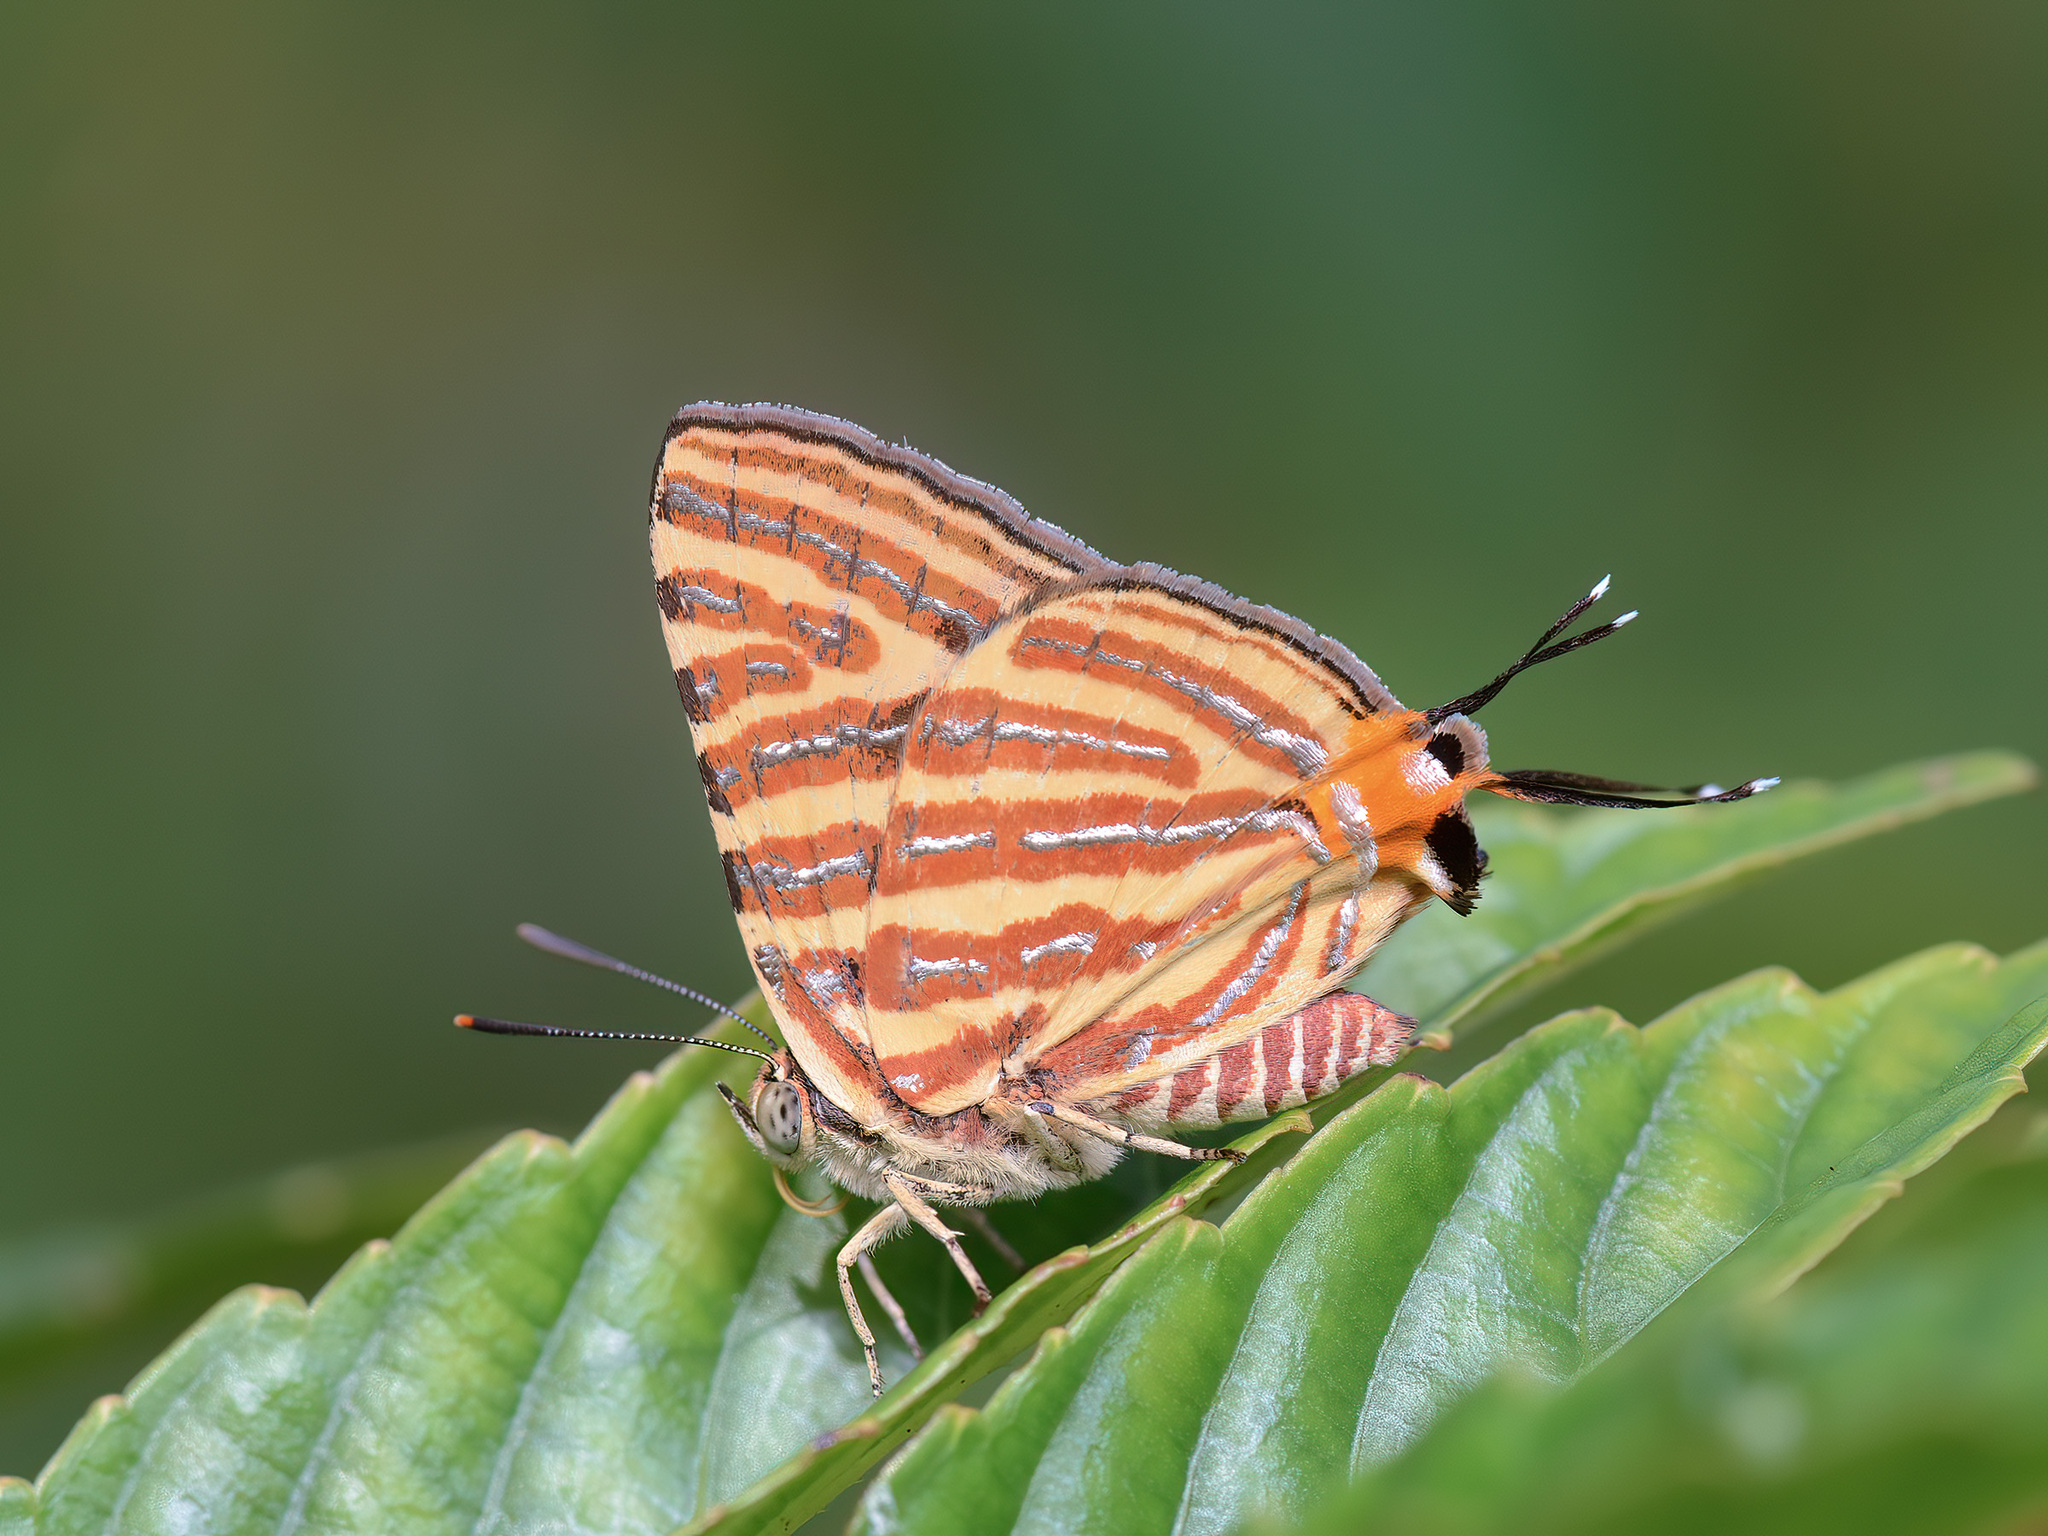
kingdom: Animalia
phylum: Arthropoda
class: Insecta
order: Lepidoptera
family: Lycaenidae
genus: Cigaritis
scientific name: Cigaritis lohita
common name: Long-banded silverline
